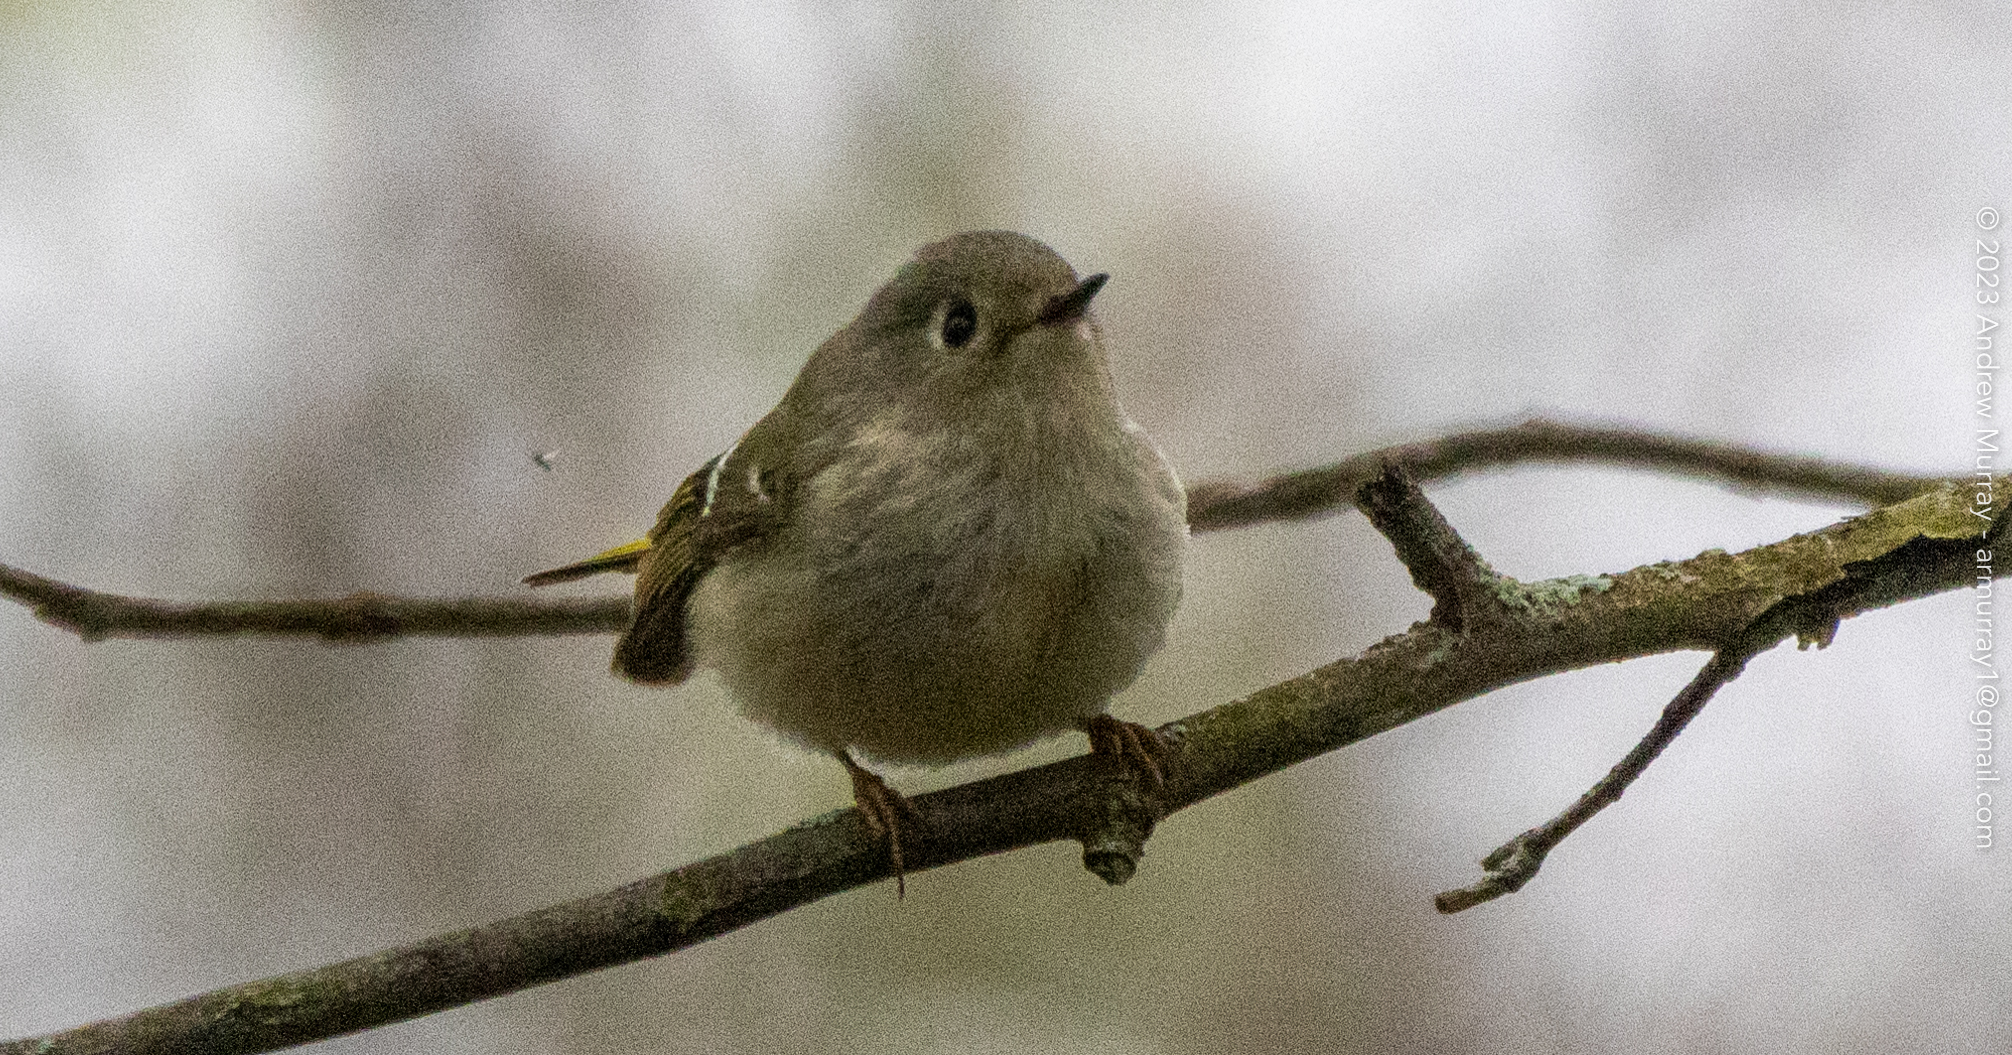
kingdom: Animalia
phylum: Chordata
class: Aves
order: Passeriformes
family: Regulidae
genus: Regulus
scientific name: Regulus calendula
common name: Ruby-crowned kinglet
